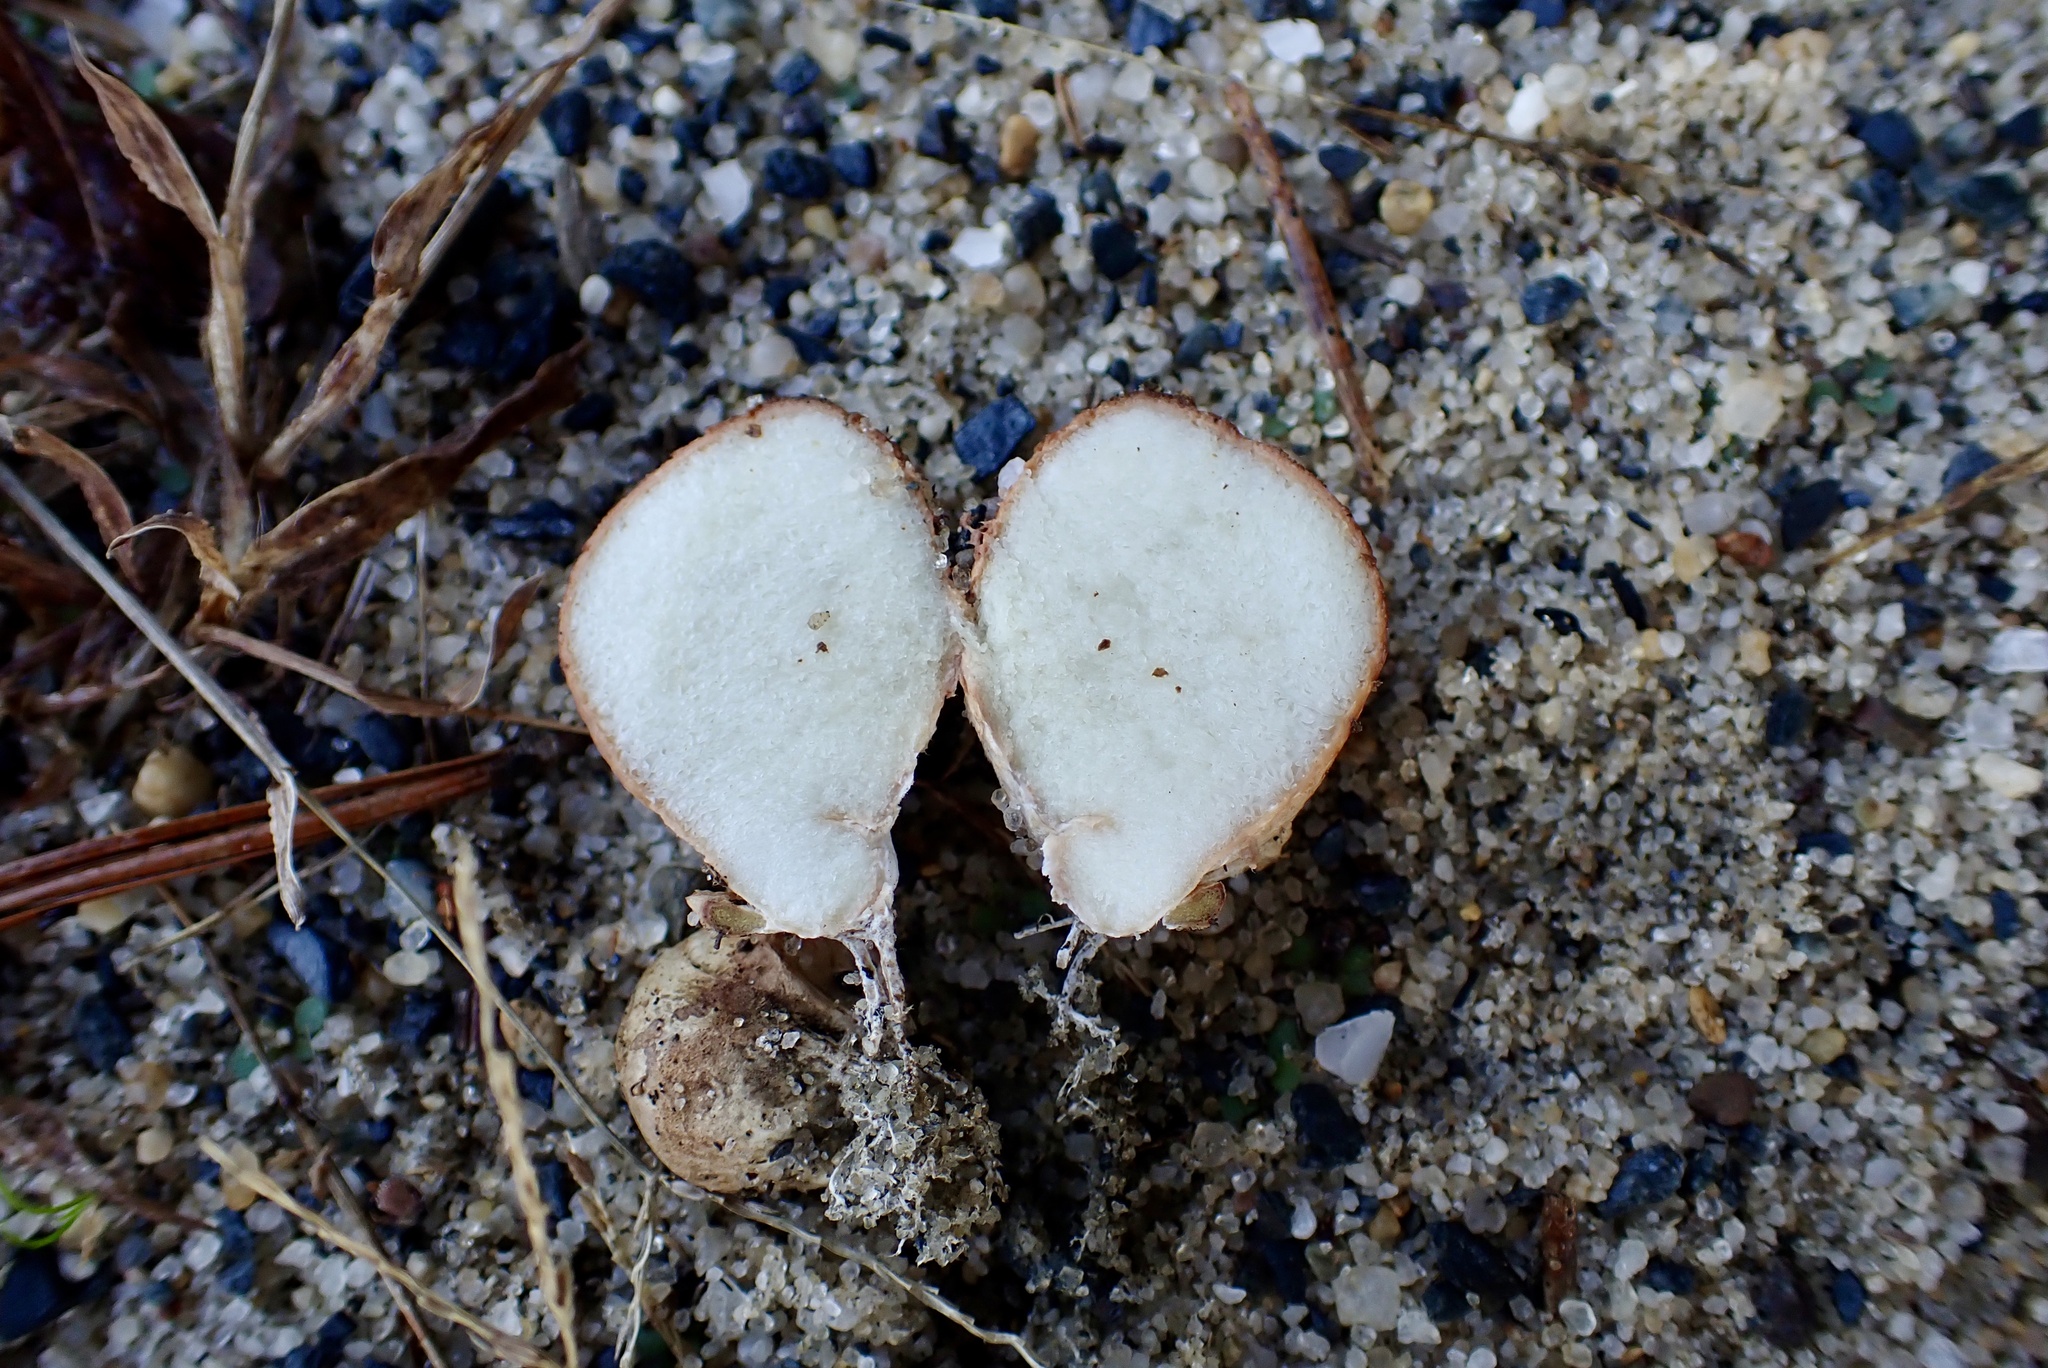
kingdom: Fungi
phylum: Basidiomycota
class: Agaricomycetes
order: Boletales
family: Rhizopogonaceae
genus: Rhizopogon
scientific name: Rhizopogon occidentalis
